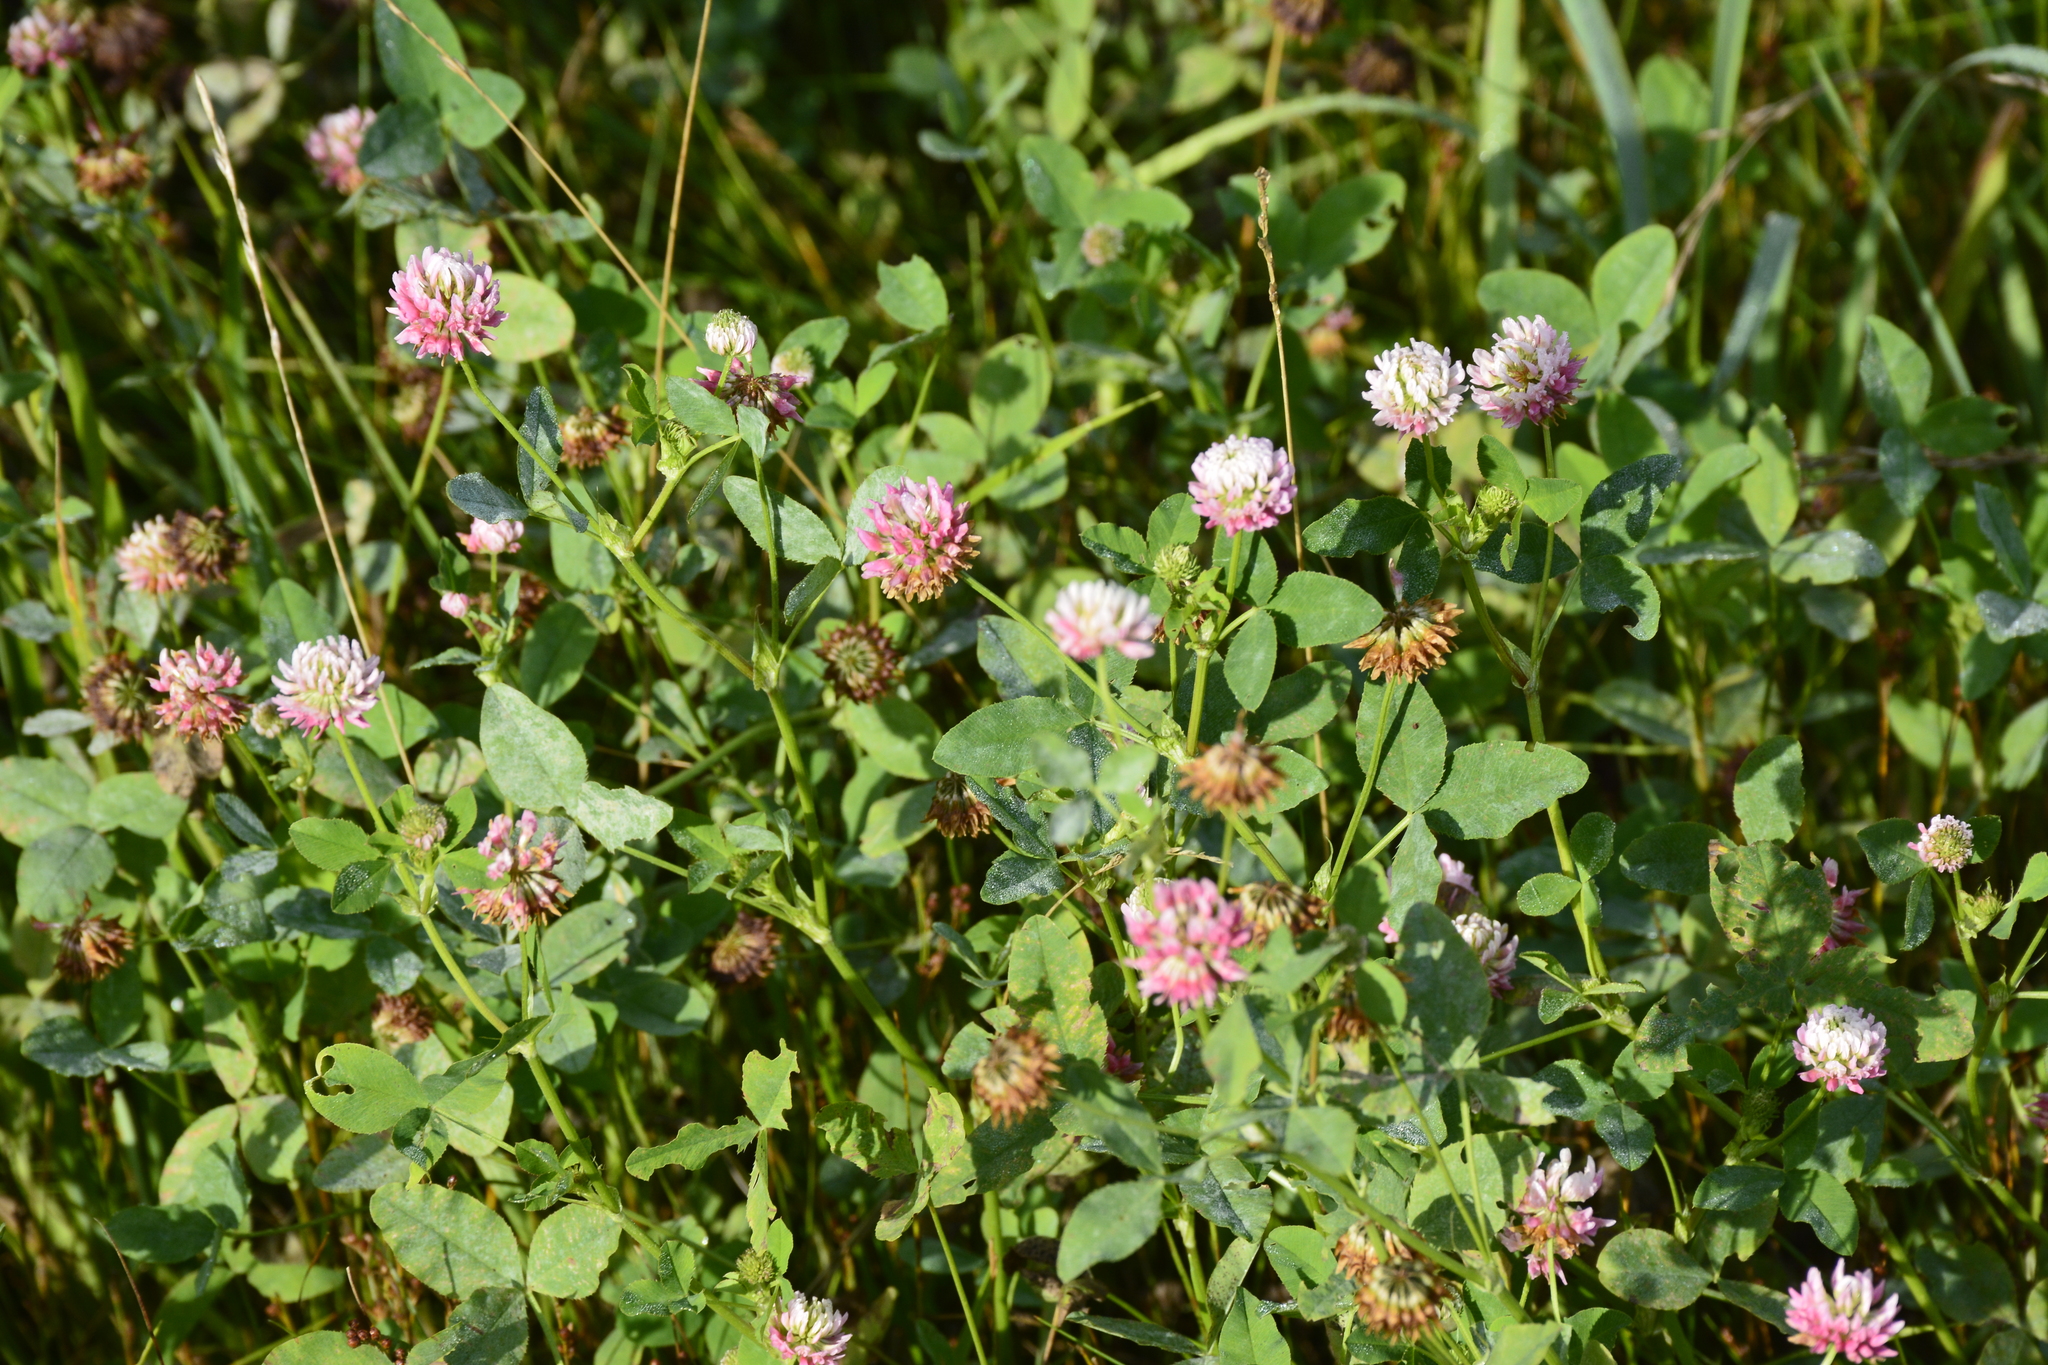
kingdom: Plantae
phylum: Tracheophyta
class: Magnoliopsida
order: Fabales
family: Fabaceae
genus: Trifolium
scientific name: Trifolium hybridum
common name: Alsike clover
